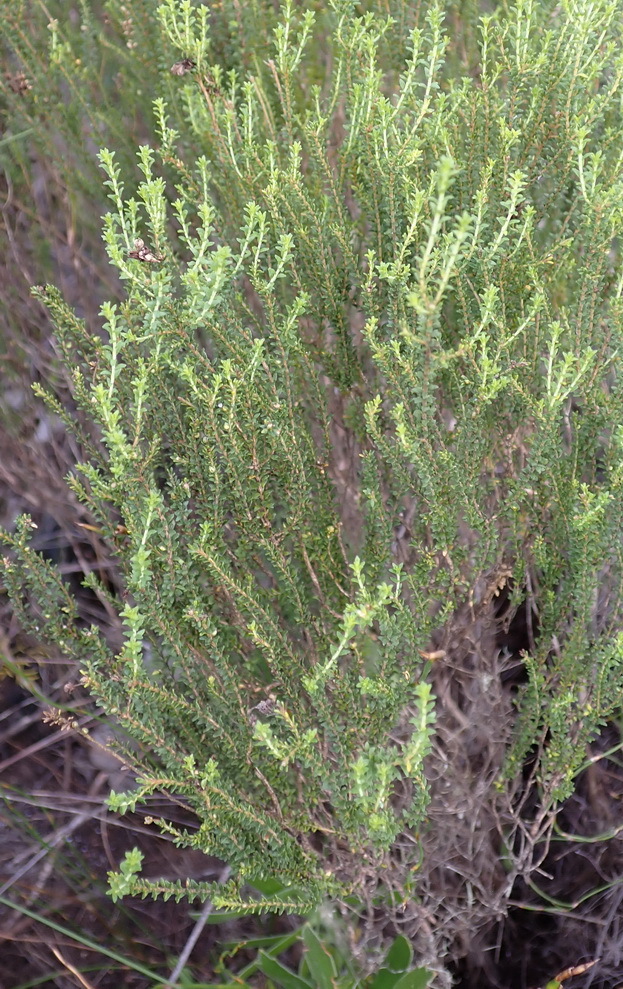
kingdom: Plantae
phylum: Tracheophyta
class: Magnoliopsida
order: Sapindales
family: Rutaceae
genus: Agathosma
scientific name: Agathosma capensis
